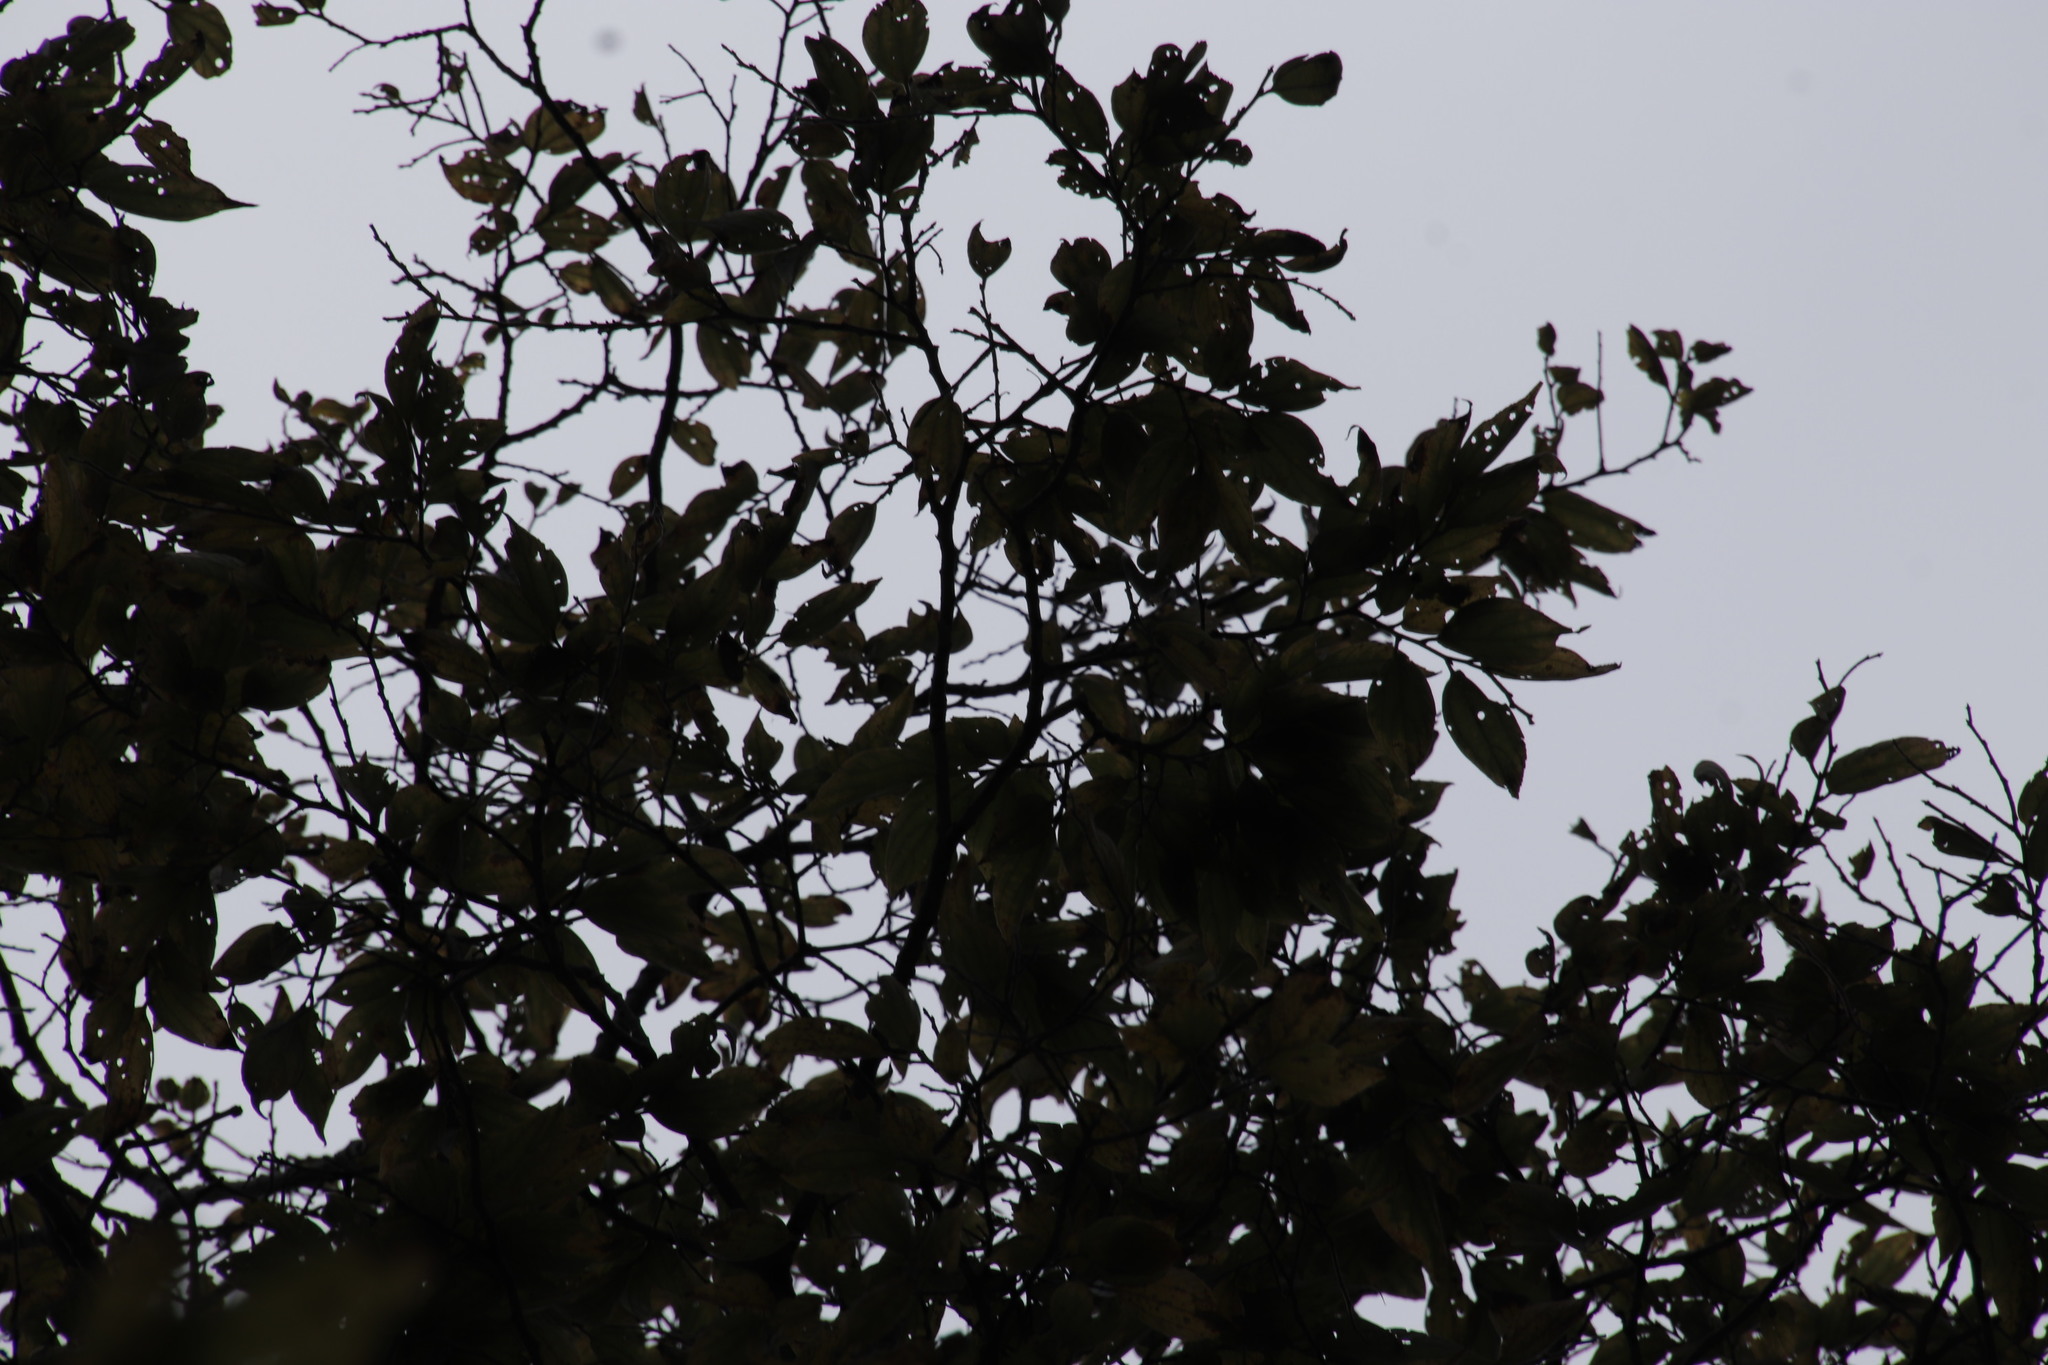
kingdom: Plantae
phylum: Tracheophyta
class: Magnoliopsida
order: Rosales
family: Cannabaceae
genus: Celtis
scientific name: Celtis africana
